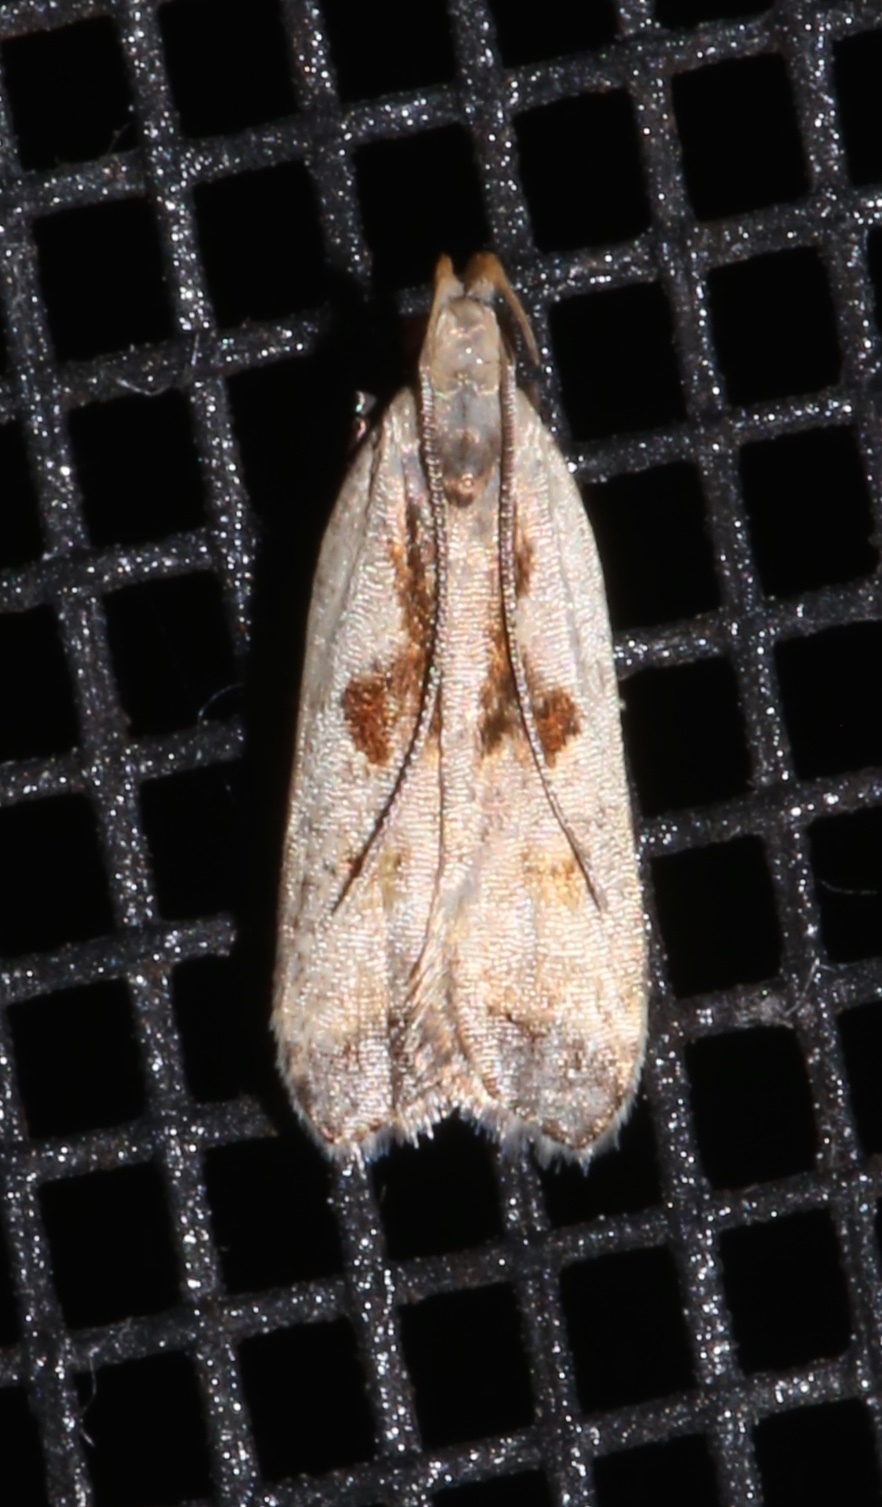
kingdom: Animalia
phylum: Arthropoda
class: Insecta
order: Lepidoptera
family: Gelechiidae
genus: Dichomeris
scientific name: Dichomeris furia
